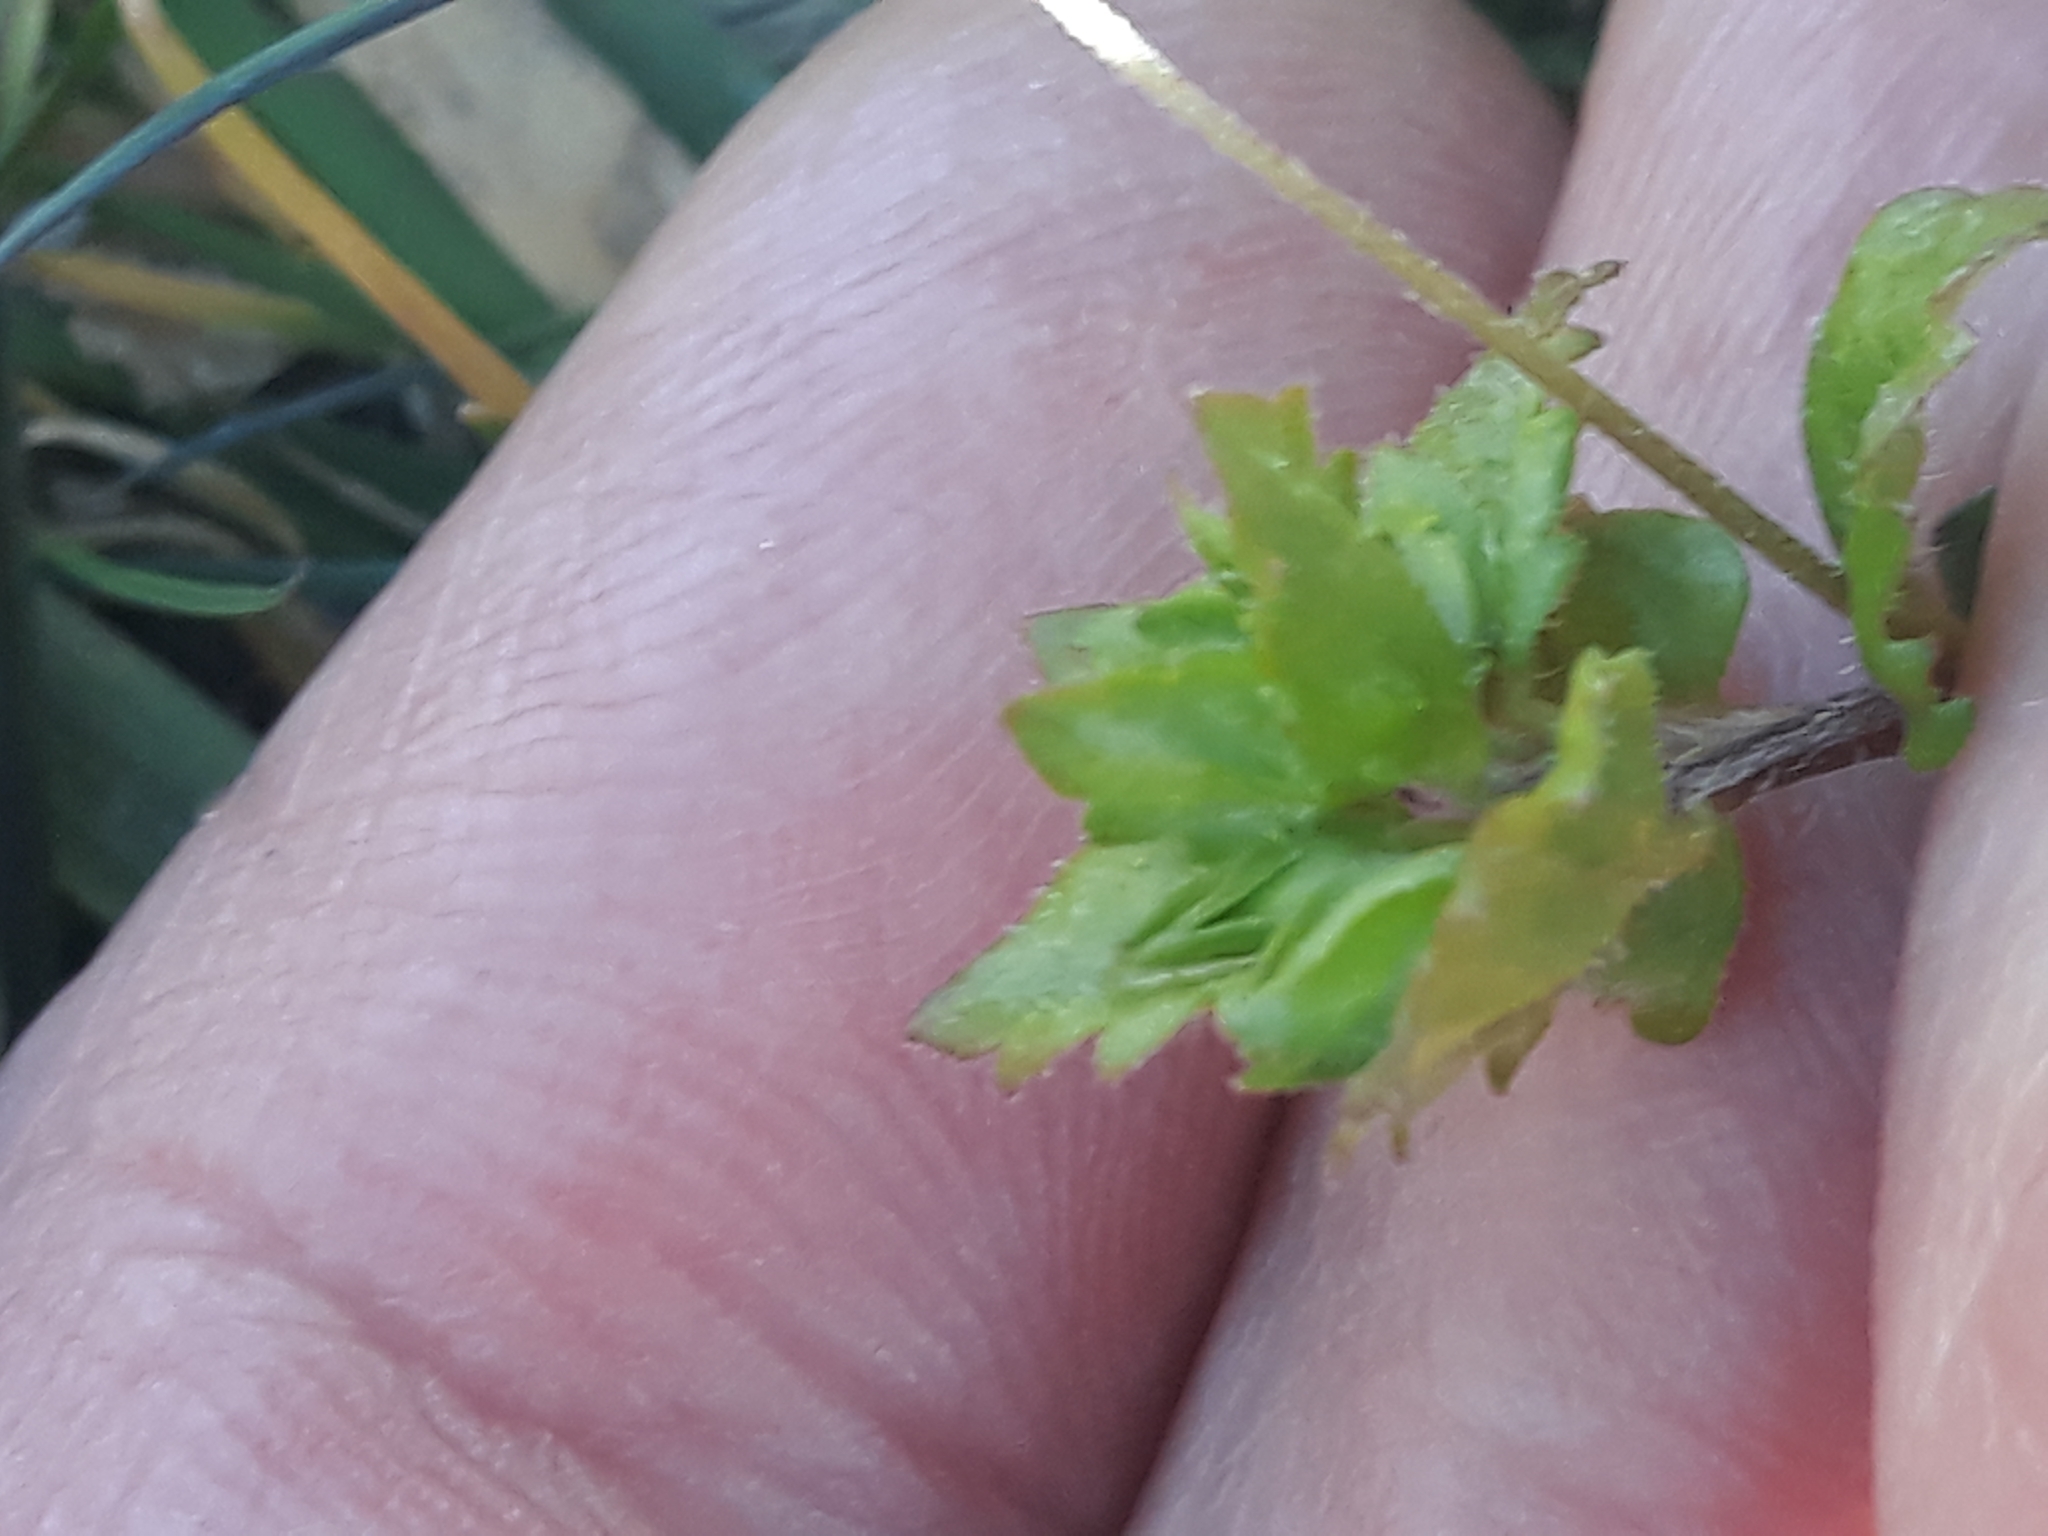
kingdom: Plantae
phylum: Tracheophyta
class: Magnoliopsida
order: Lamiales
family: Plantaginaceae
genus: Veronica
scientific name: Veronica persica
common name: Common field-speedwell
